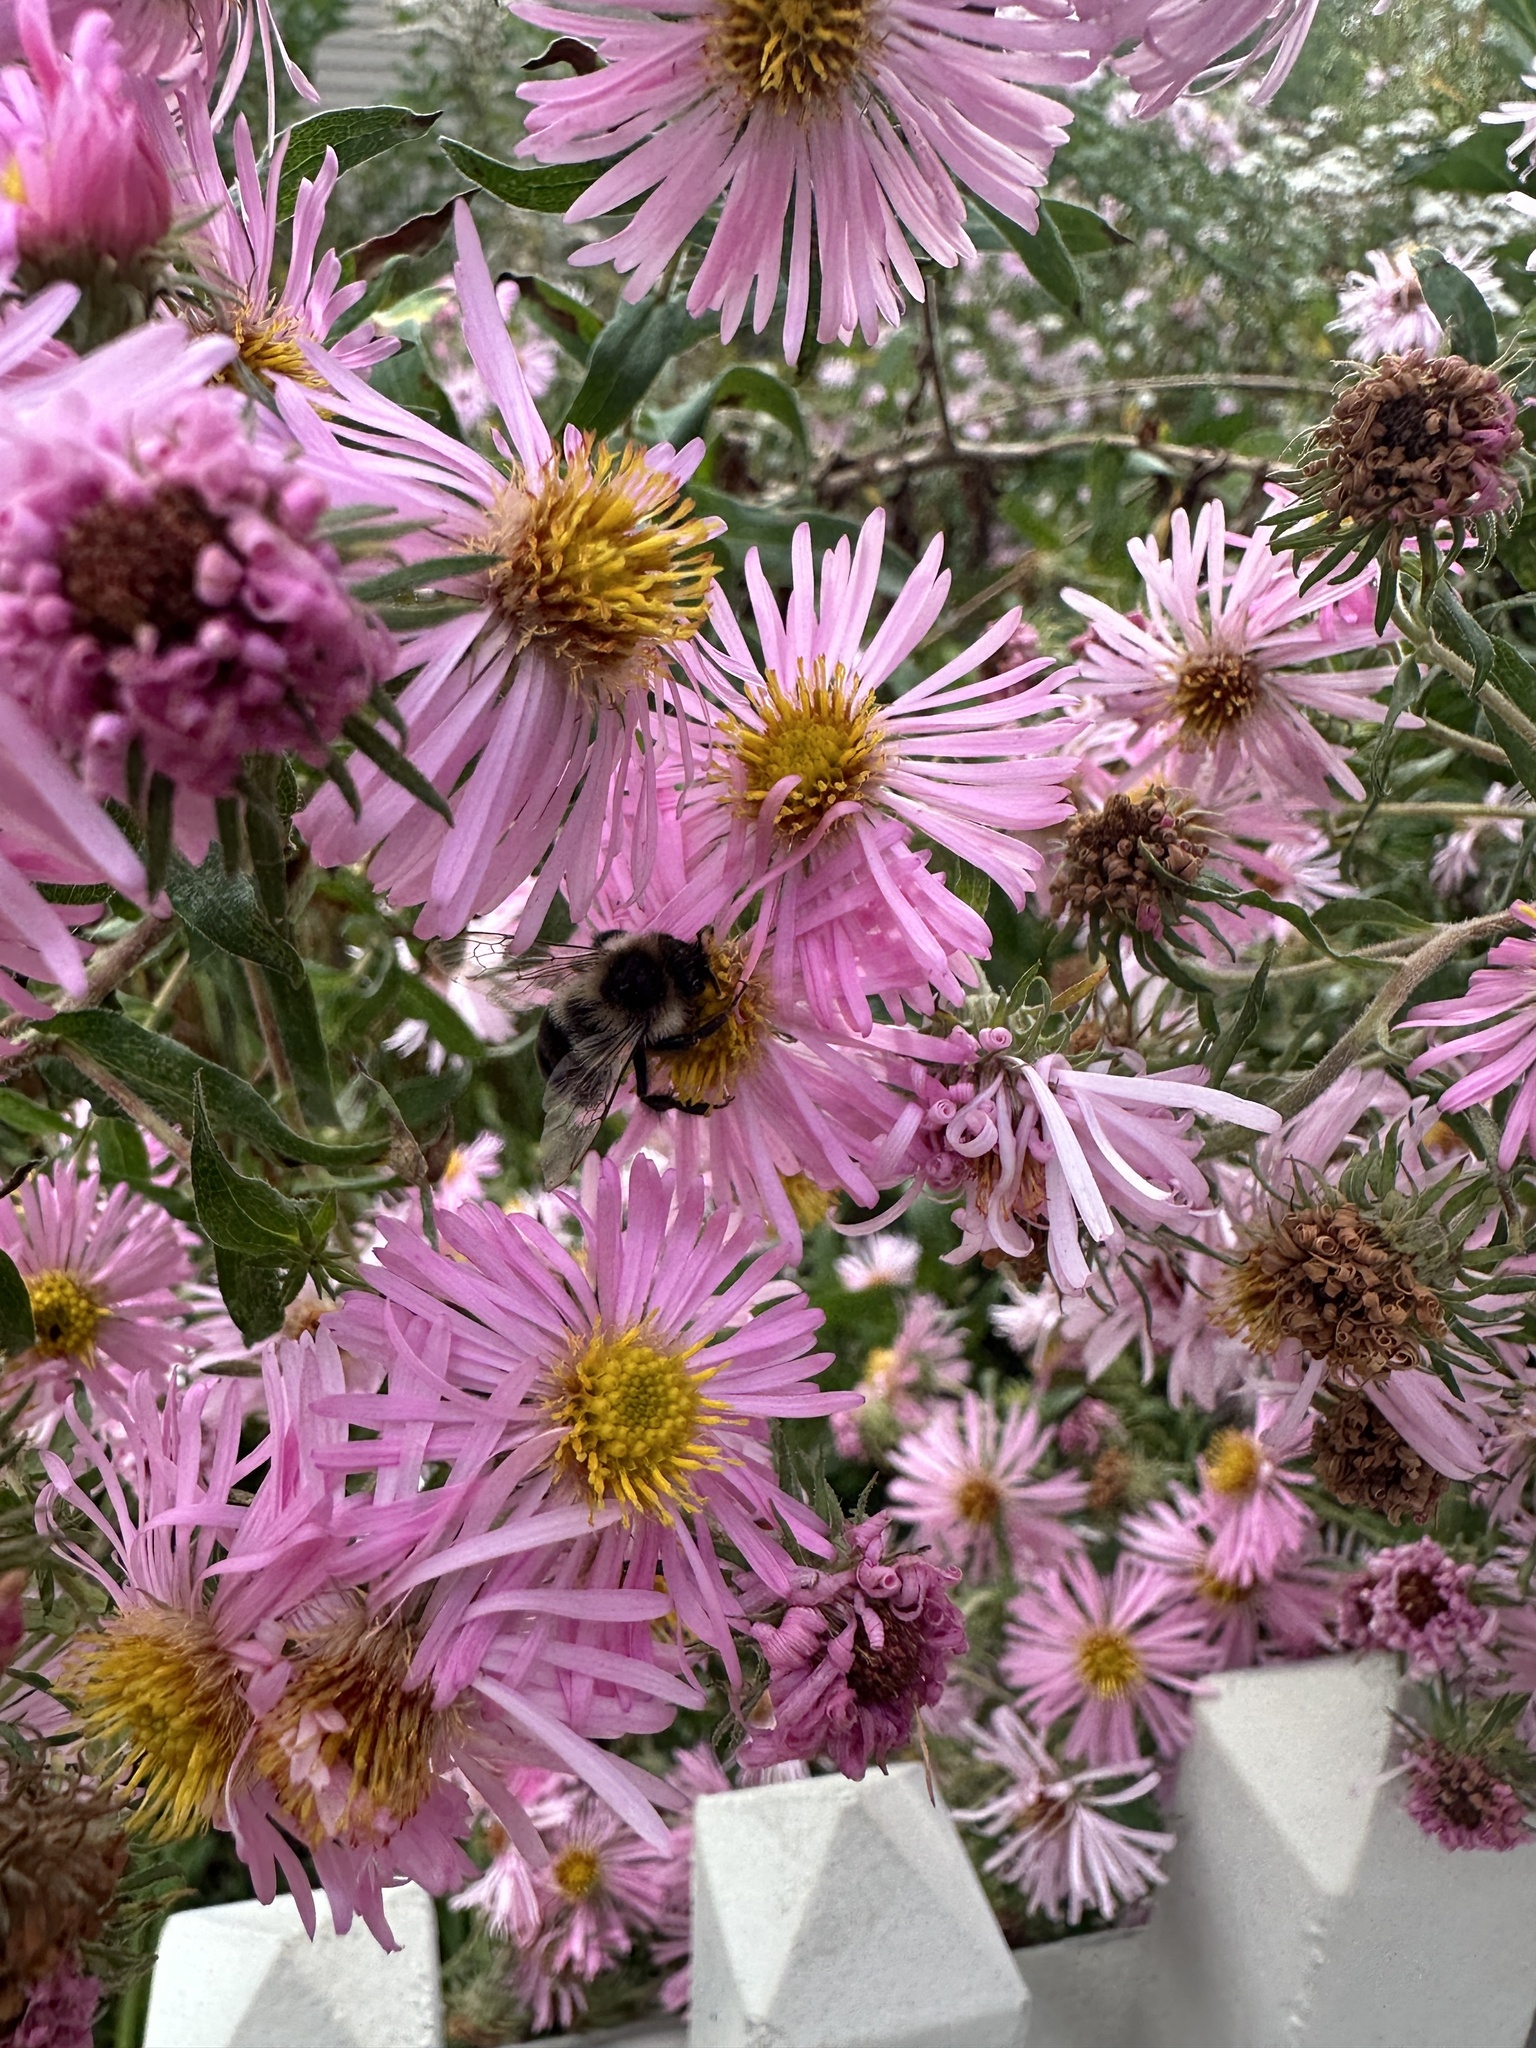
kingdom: Animalia
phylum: Arthropoda
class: Insecta
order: Hymenoptera
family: Apidae
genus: Bombus
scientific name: Bombus impatiens
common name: Common eastern bumble bee
